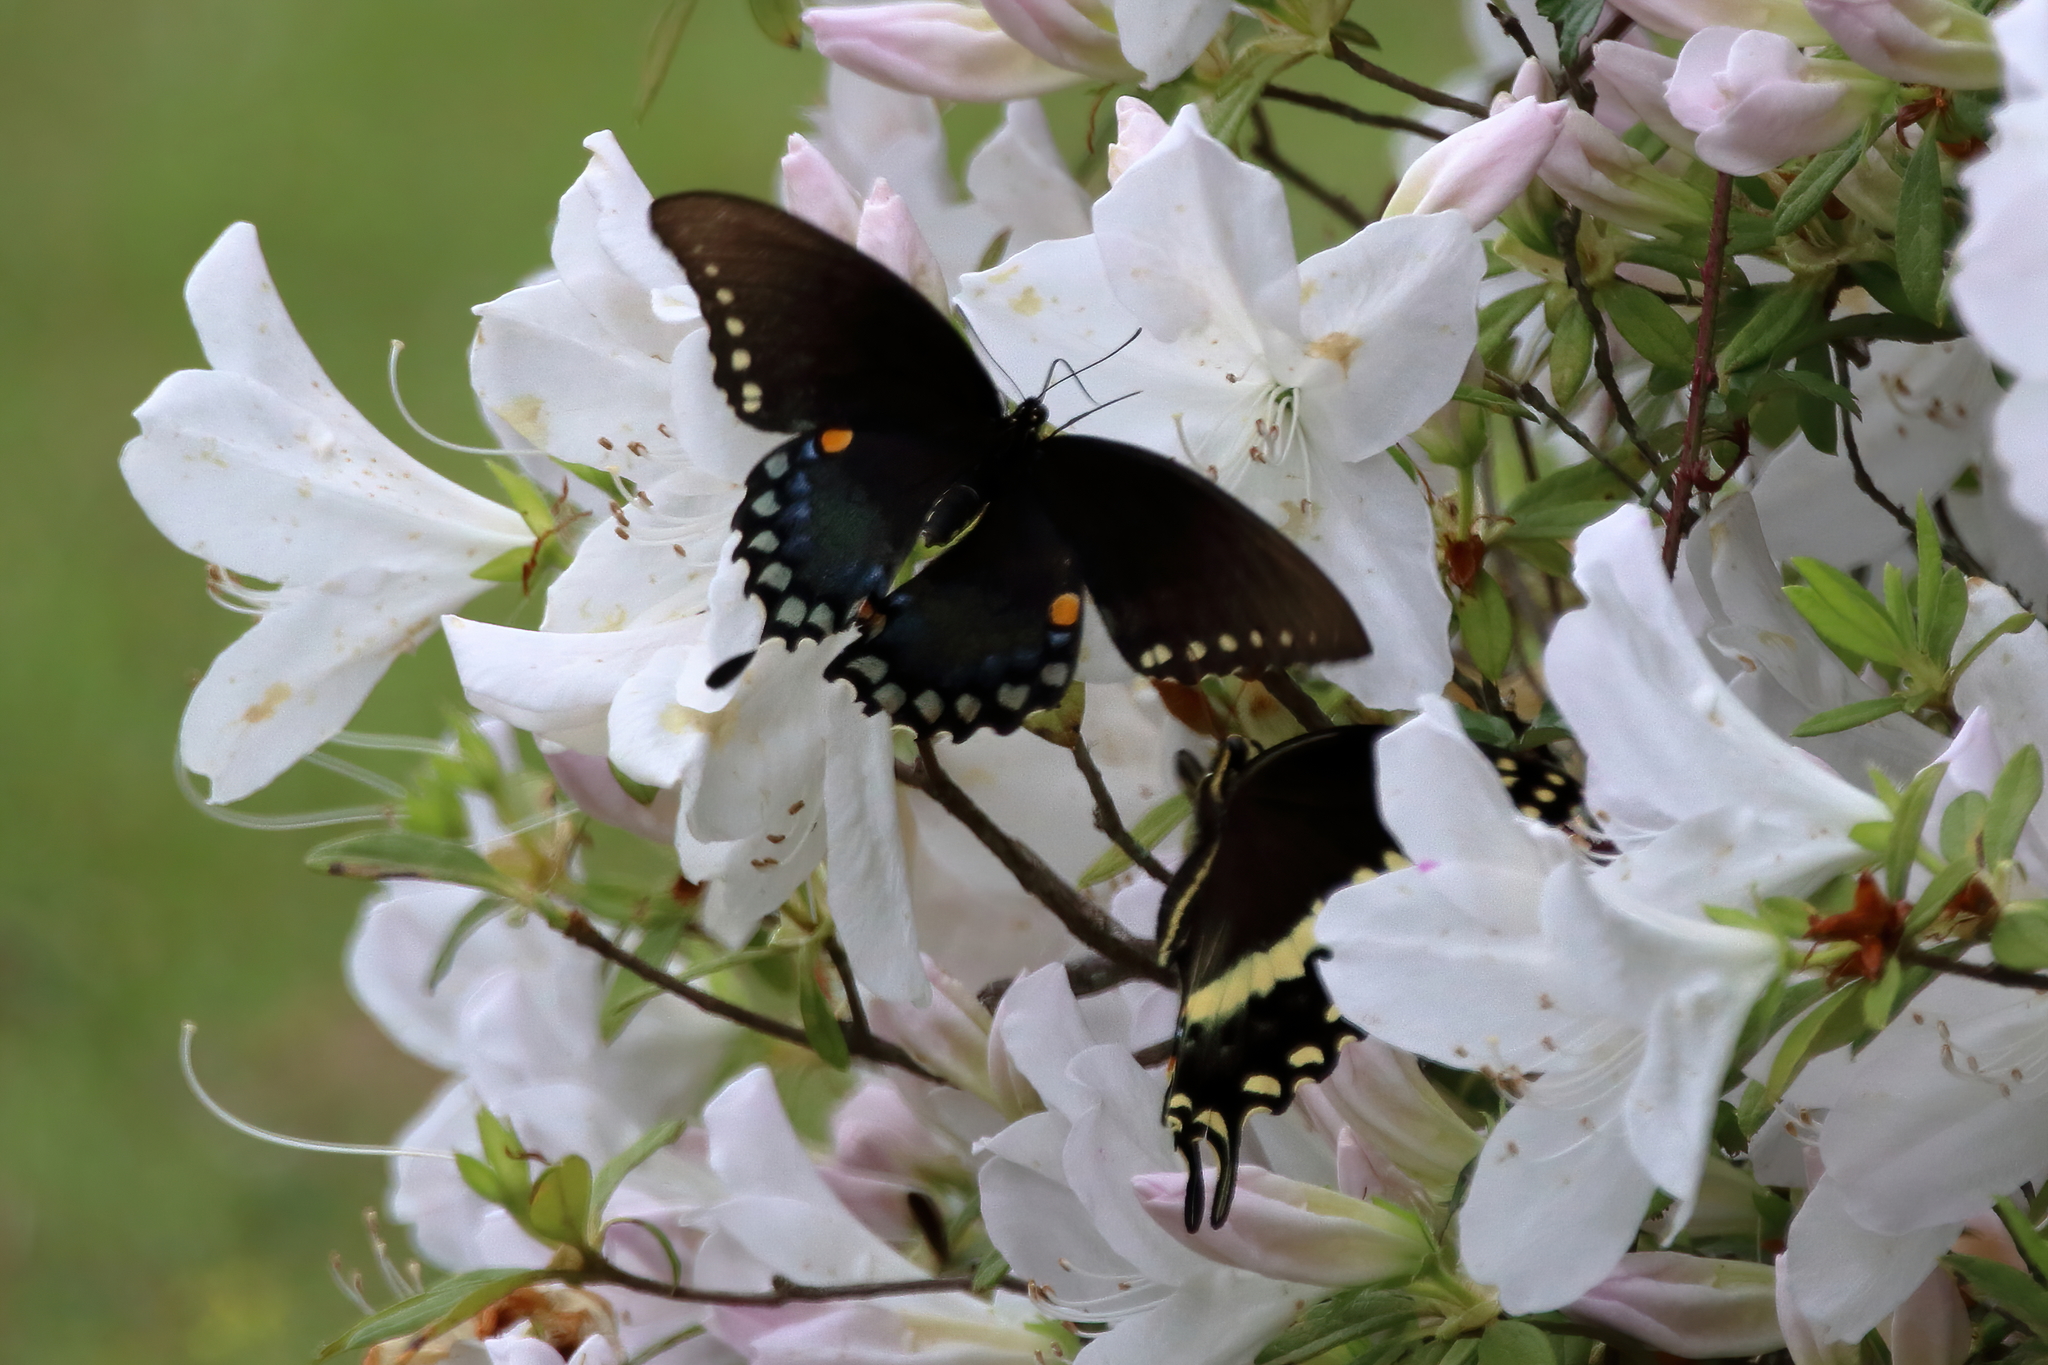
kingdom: Animalia
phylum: Arthropoda
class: Insecta
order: Lepidoptera
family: Papilionidae
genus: Papilio
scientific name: Papilio troilus
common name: Spicebush swallowtail
